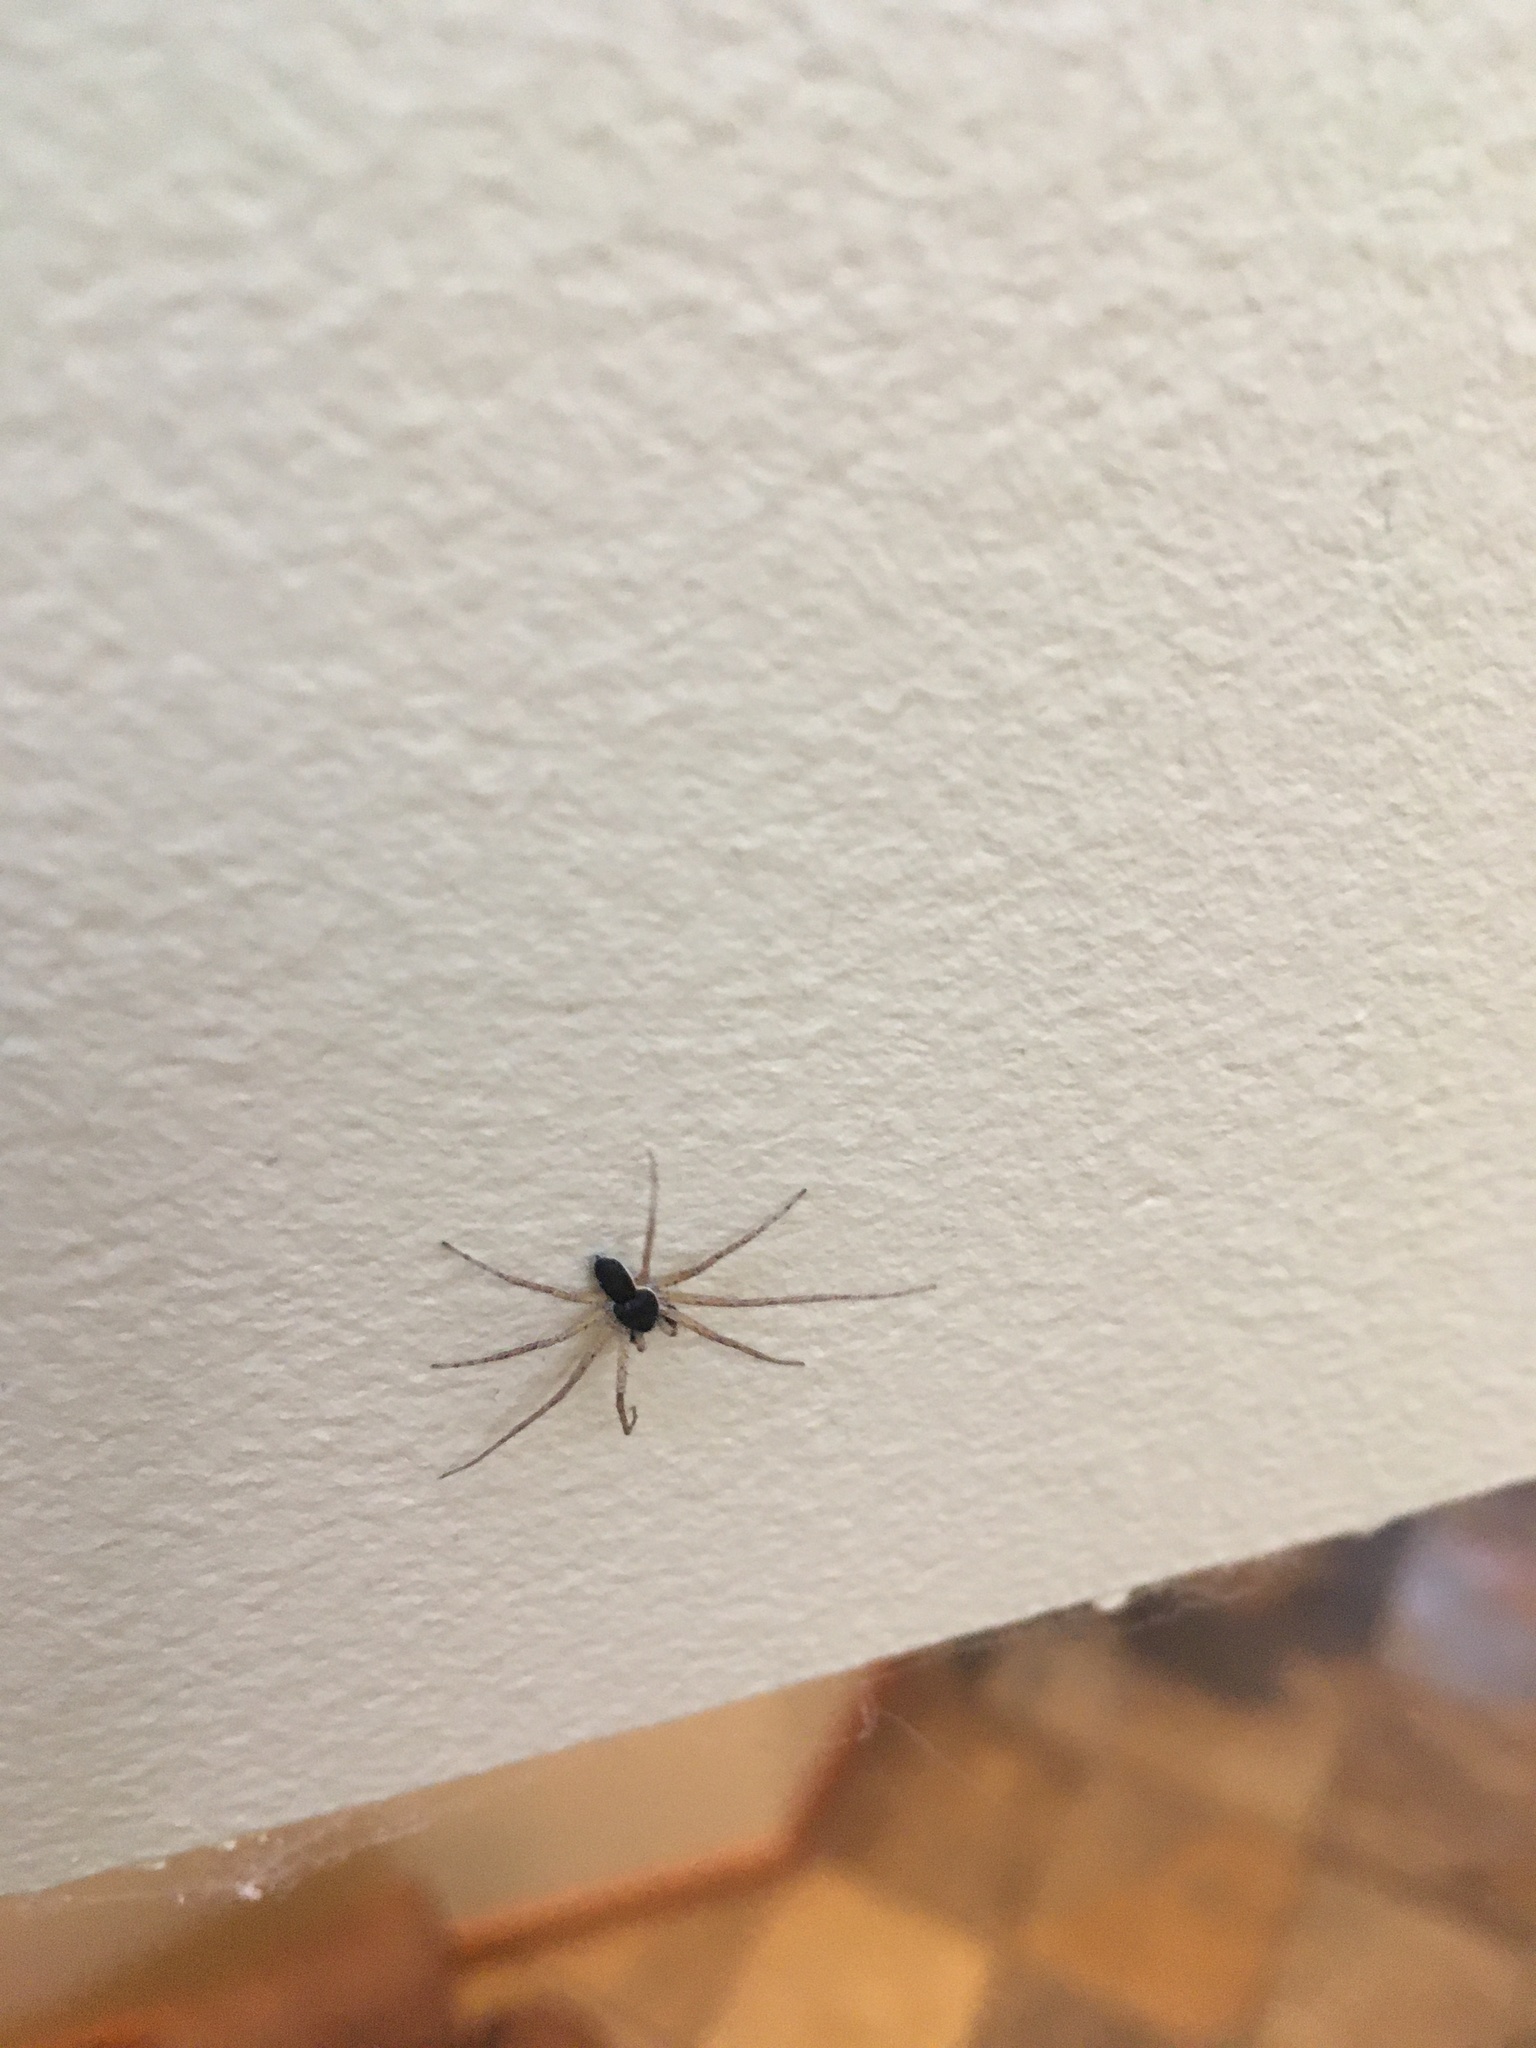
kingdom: Animalia
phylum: Arthropoda
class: Arachnida
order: Araneae
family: Philodromidae
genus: Philodromus
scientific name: Philodromus dispar
